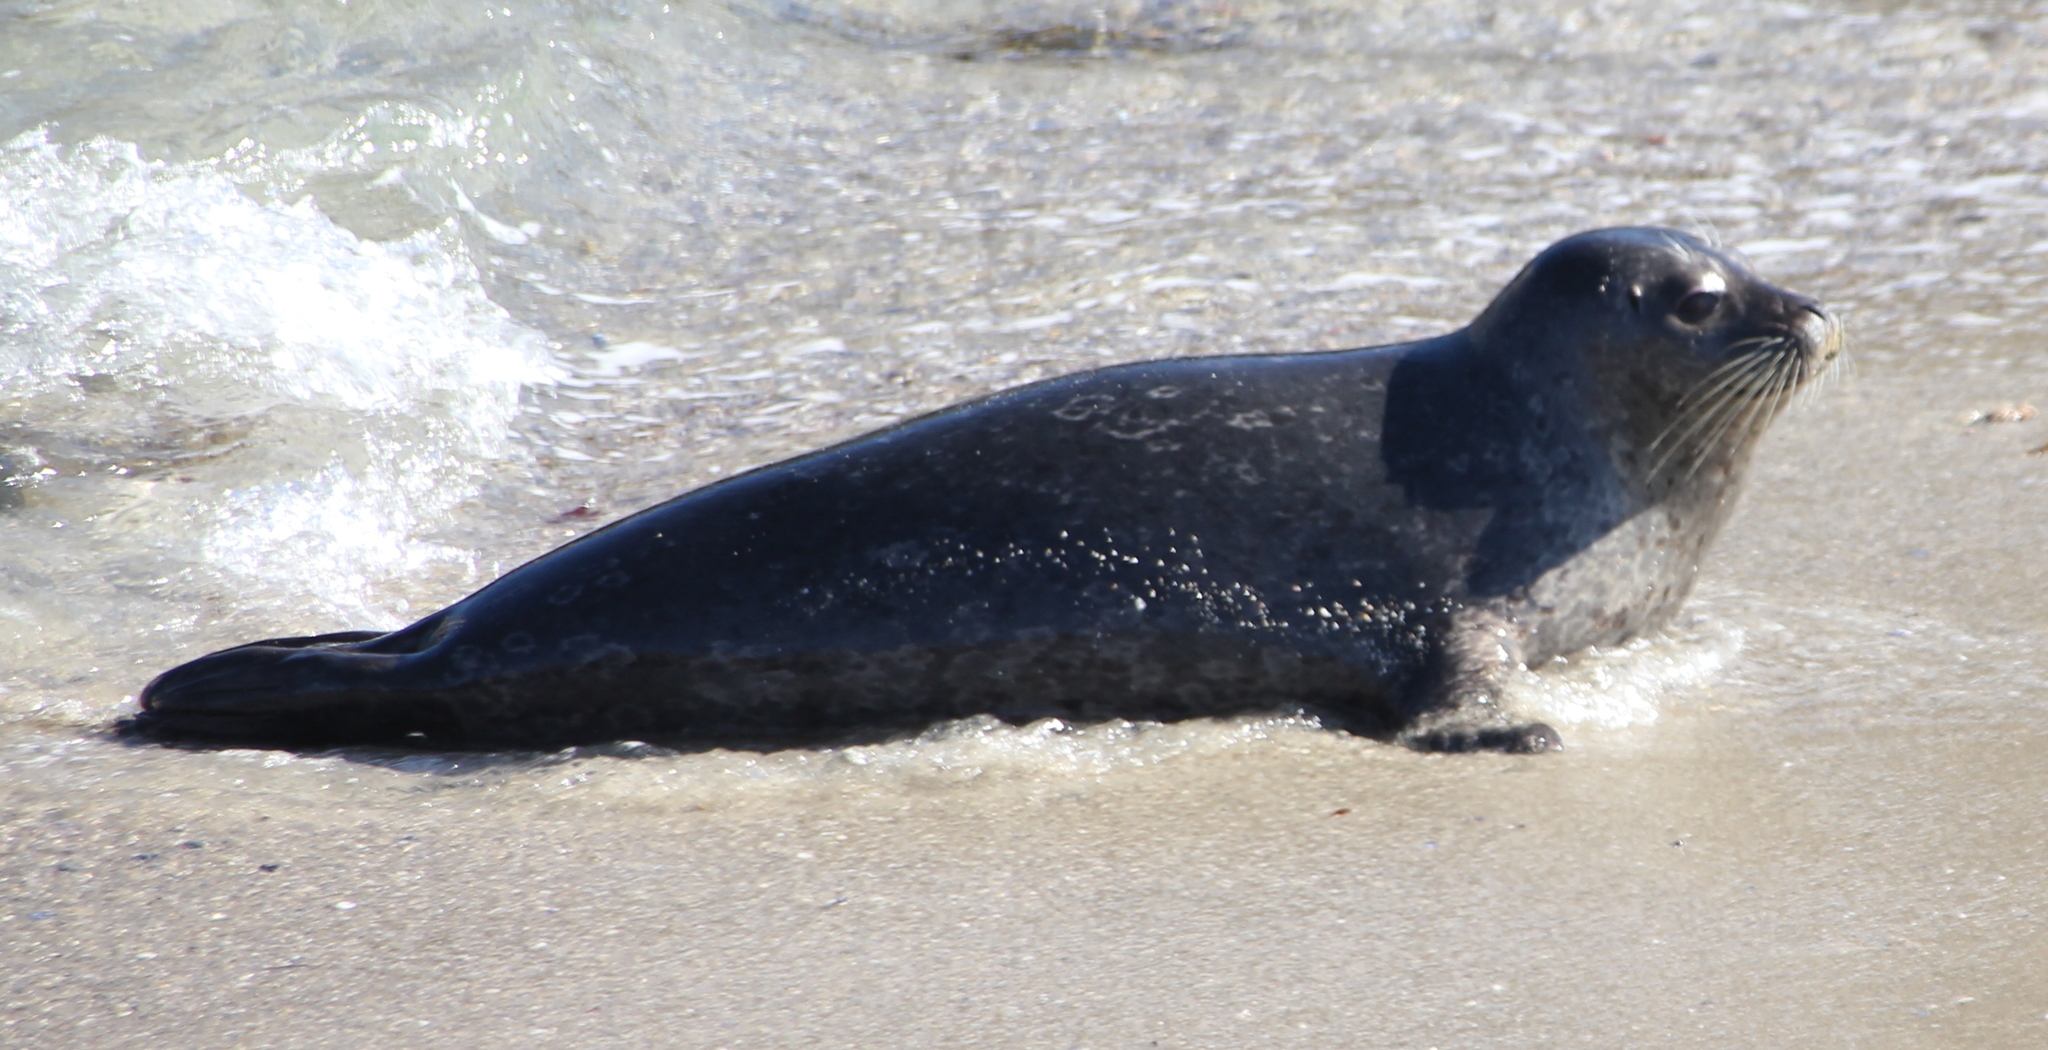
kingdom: Animalia
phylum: Chordata
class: Mammalia
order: Carnivora
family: Phocidae
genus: Phoca
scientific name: Phoca vitulina
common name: Harbor seal
